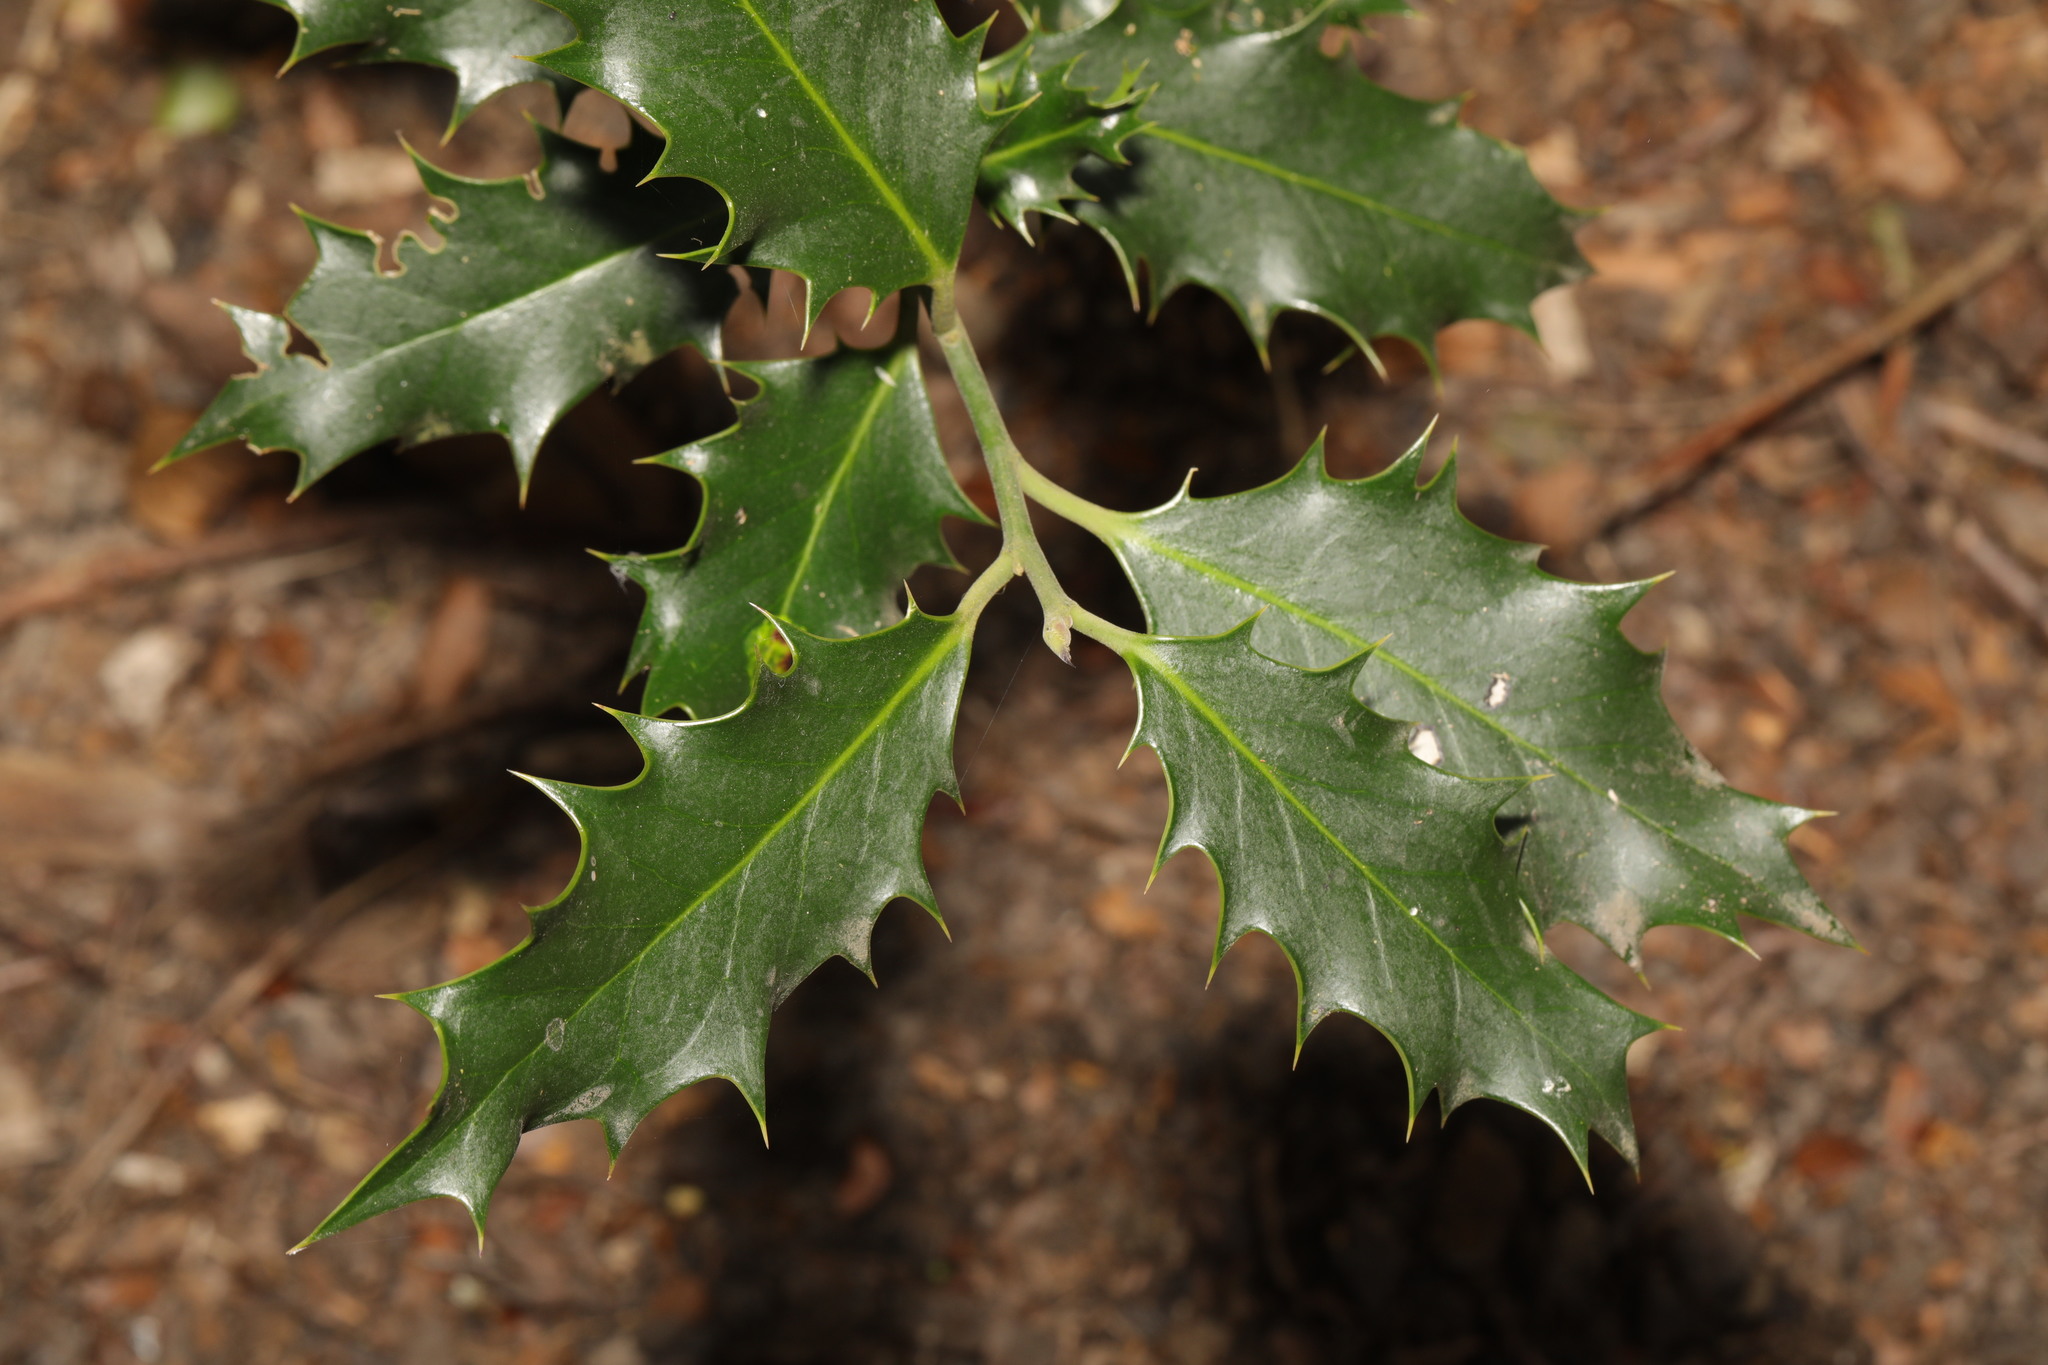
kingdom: Plantae
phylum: Tracheophyta
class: Magnoliopsida
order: Aquifoliales
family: Aquifoliaceae
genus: Ilex
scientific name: Ilex aquifolium
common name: English holly
